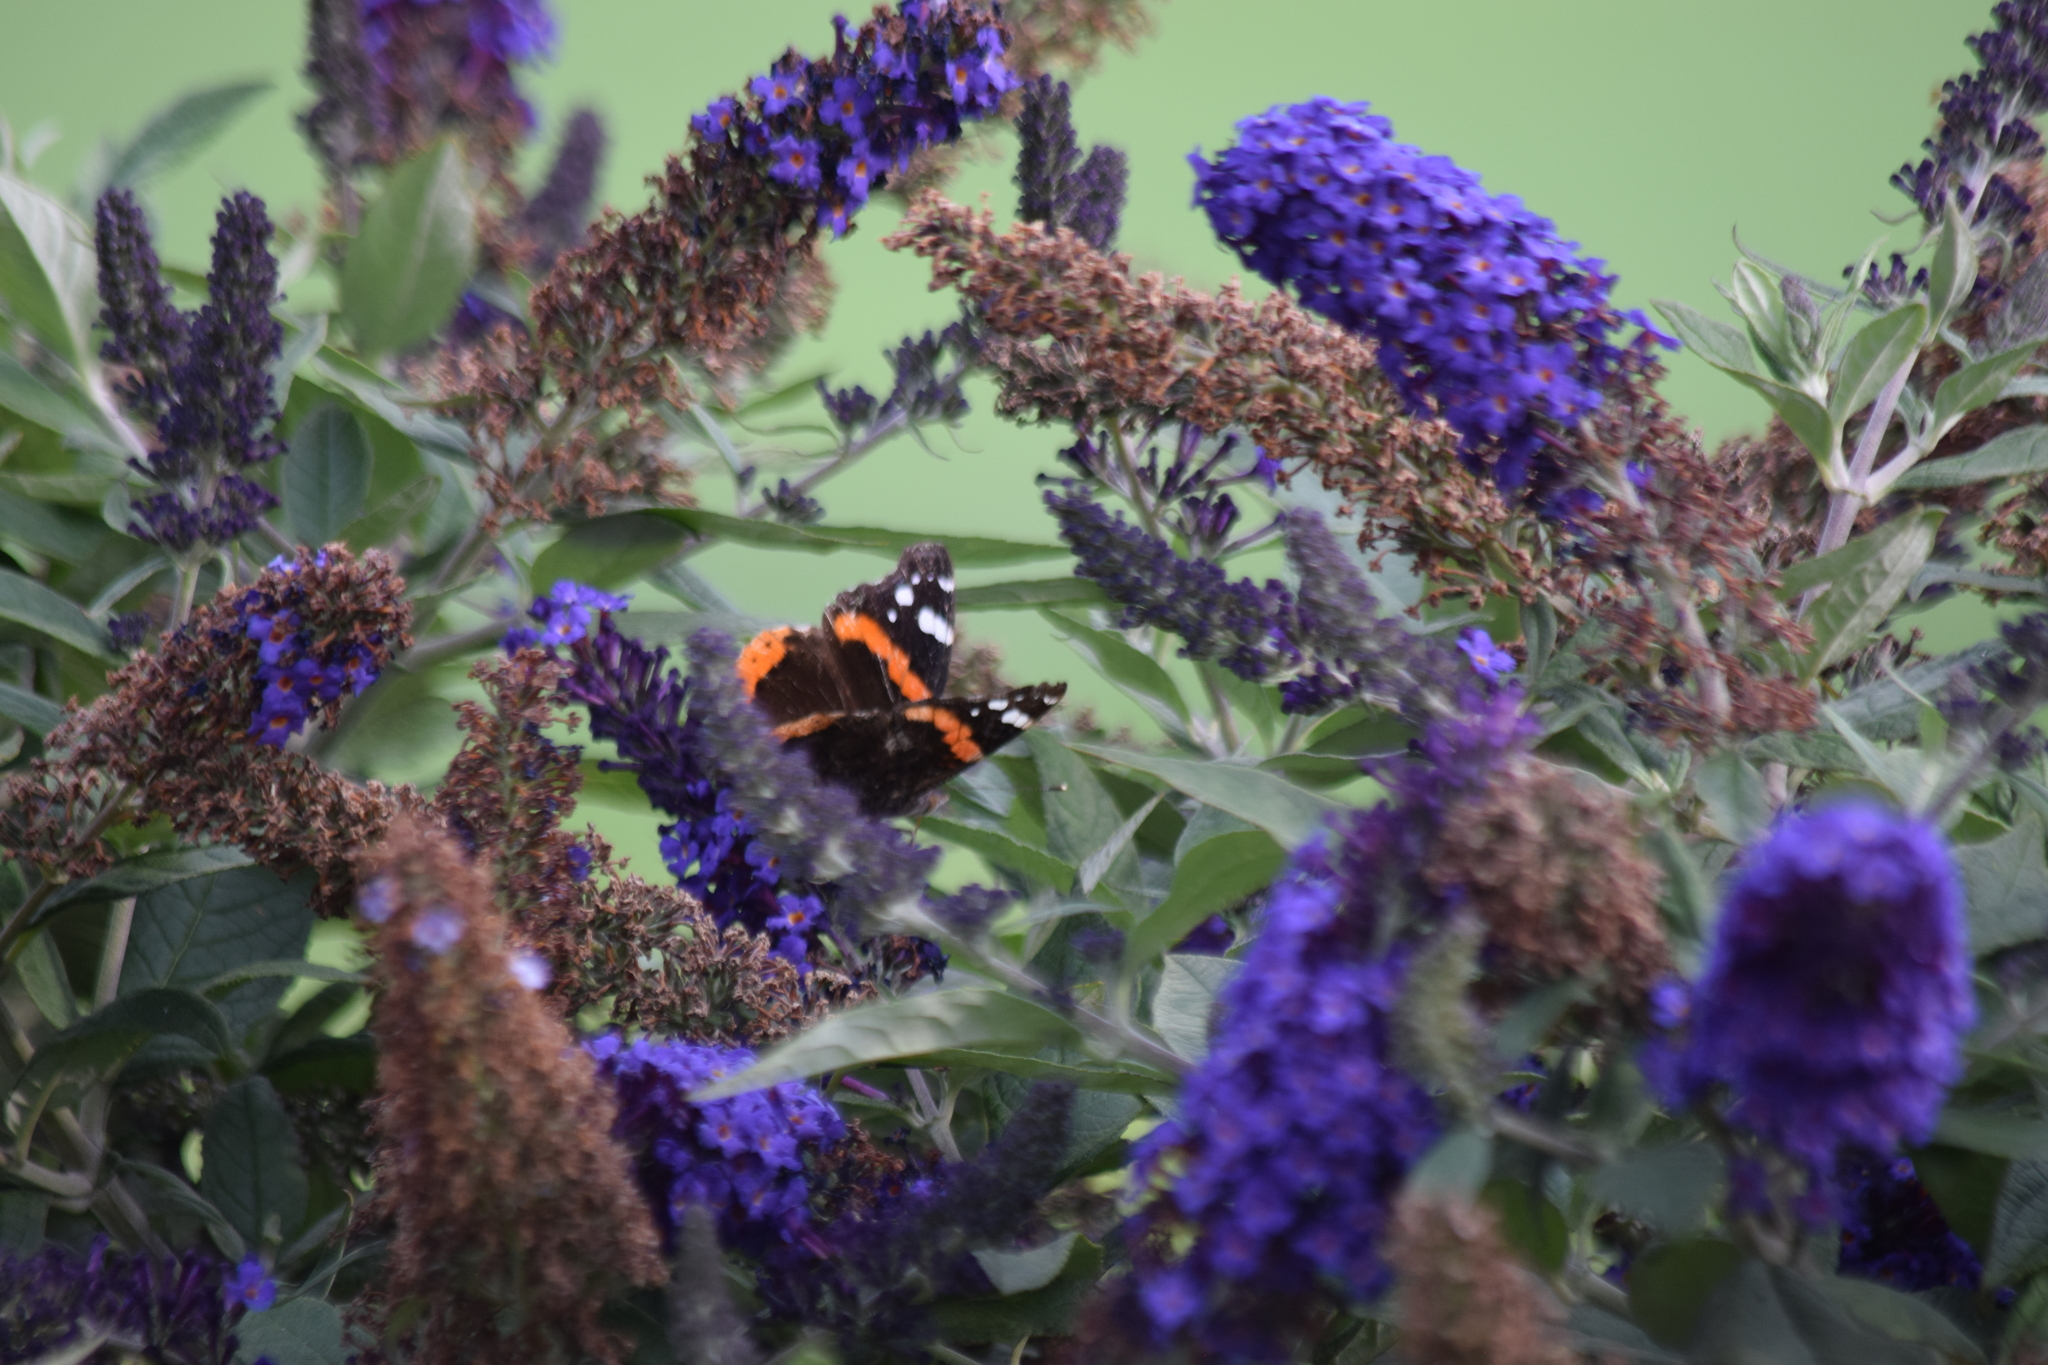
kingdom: Animalia
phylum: Arthropoda
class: Insecta
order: Lepidoptera
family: Nymphalidae
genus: Vanessa
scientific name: Vanessa atalanta
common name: Red admiral
